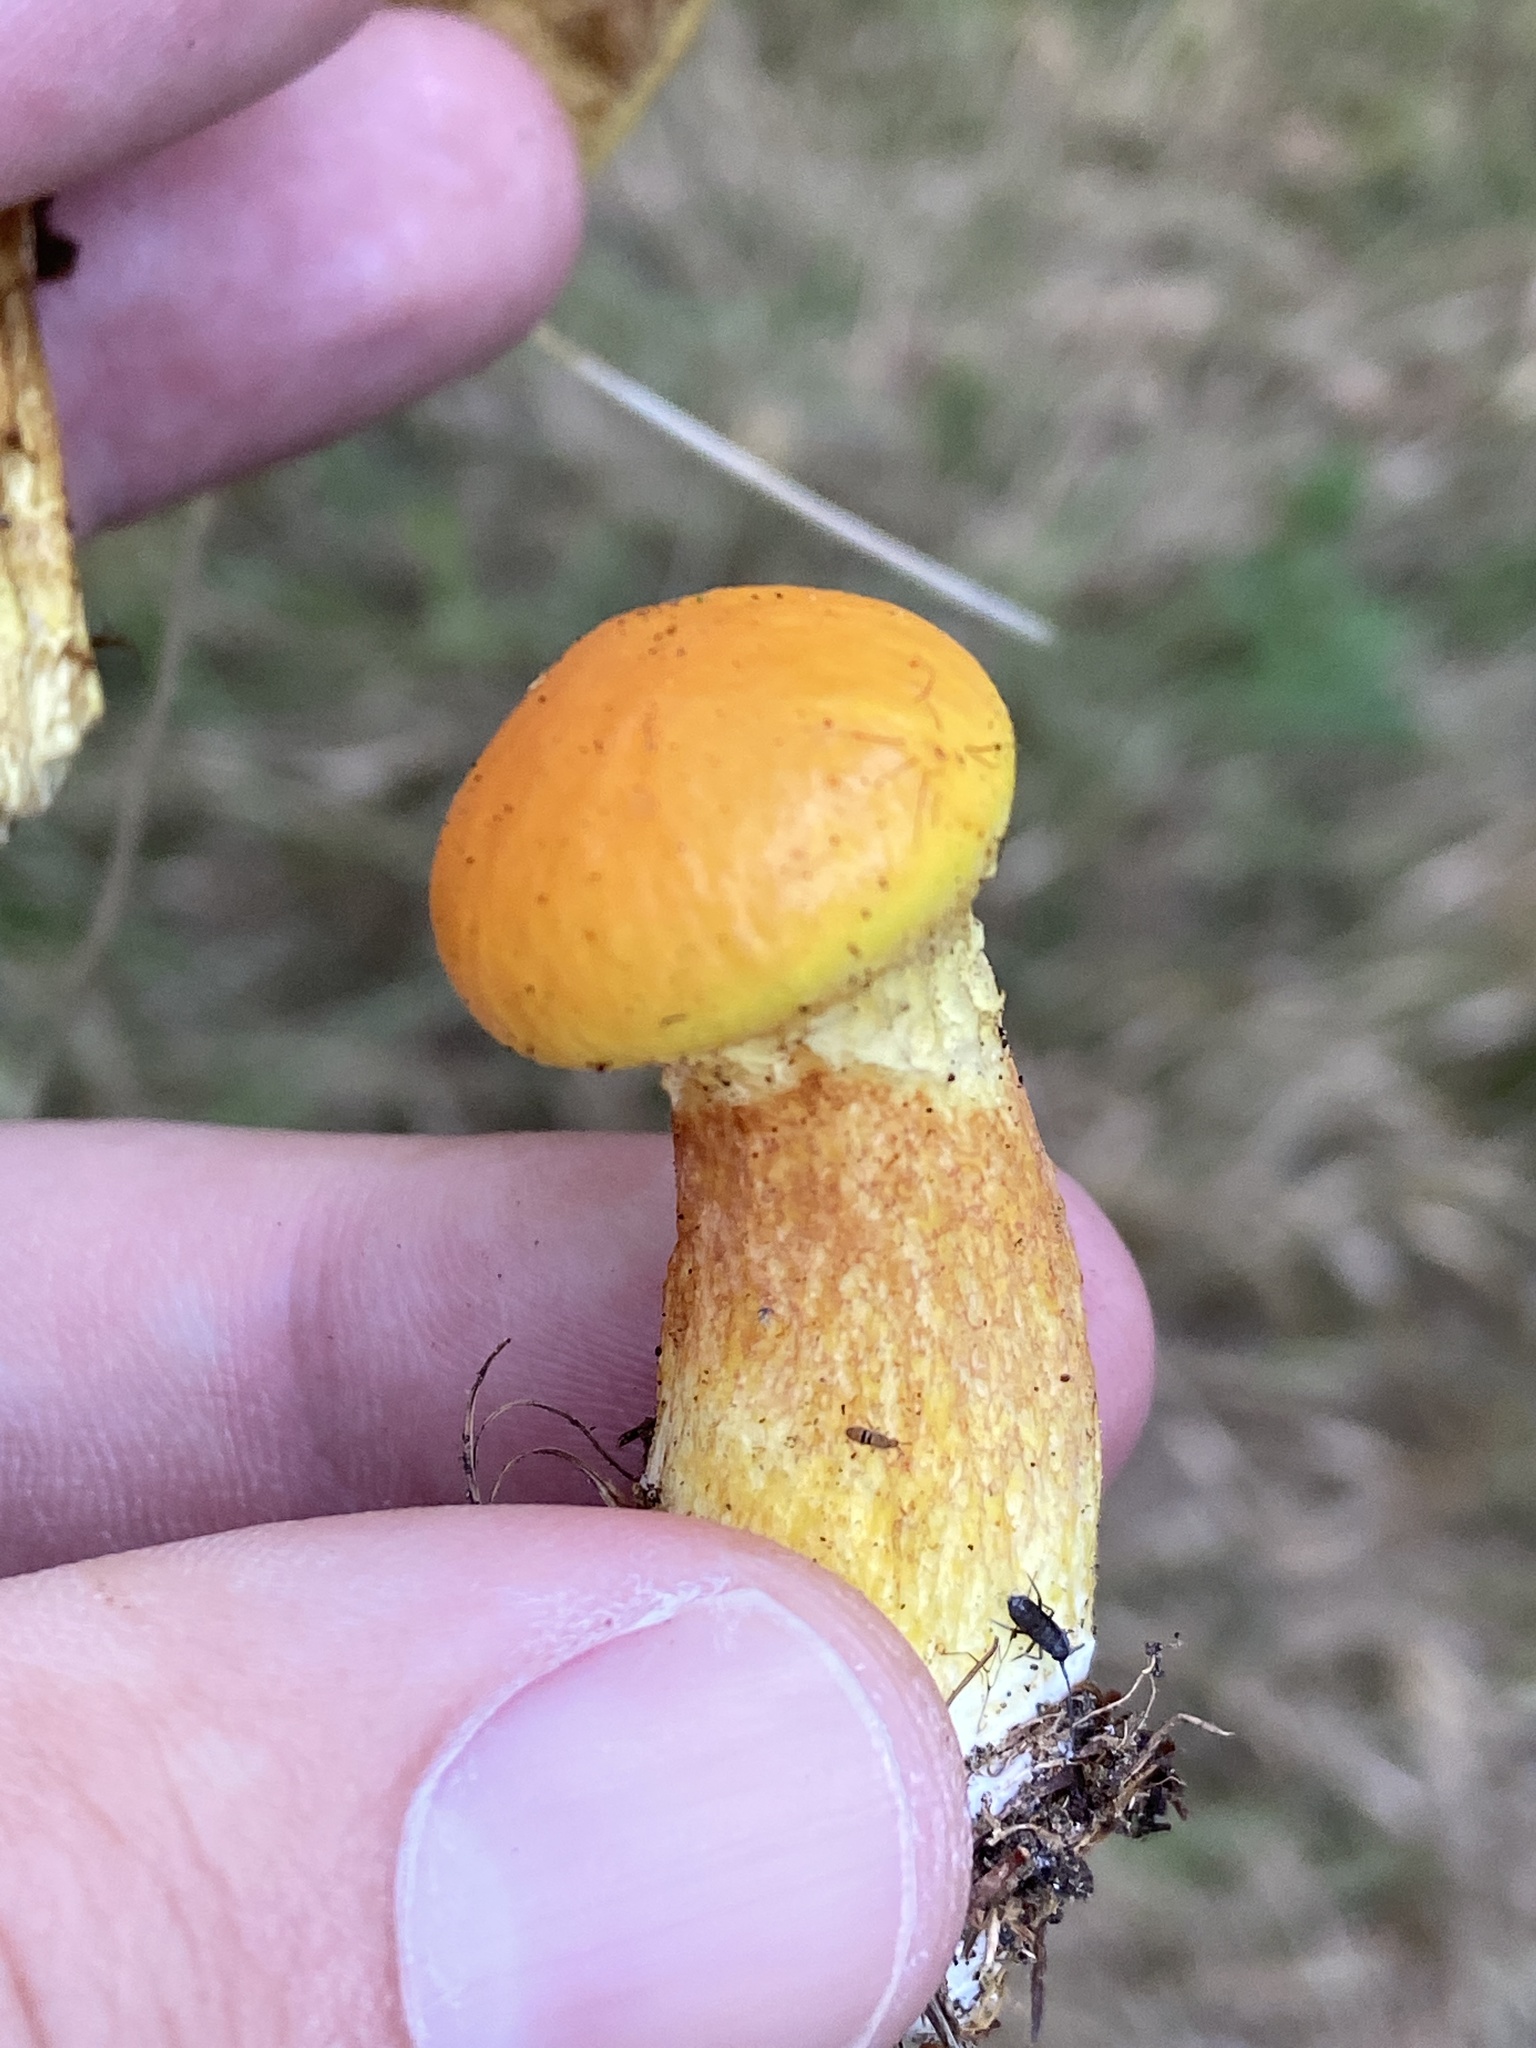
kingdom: Fungi
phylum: Basidiomycota
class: Agaricomycetes
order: Boletales
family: Suillaceae
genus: Suillus
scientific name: Suillus grevillei
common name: Larch bolete
